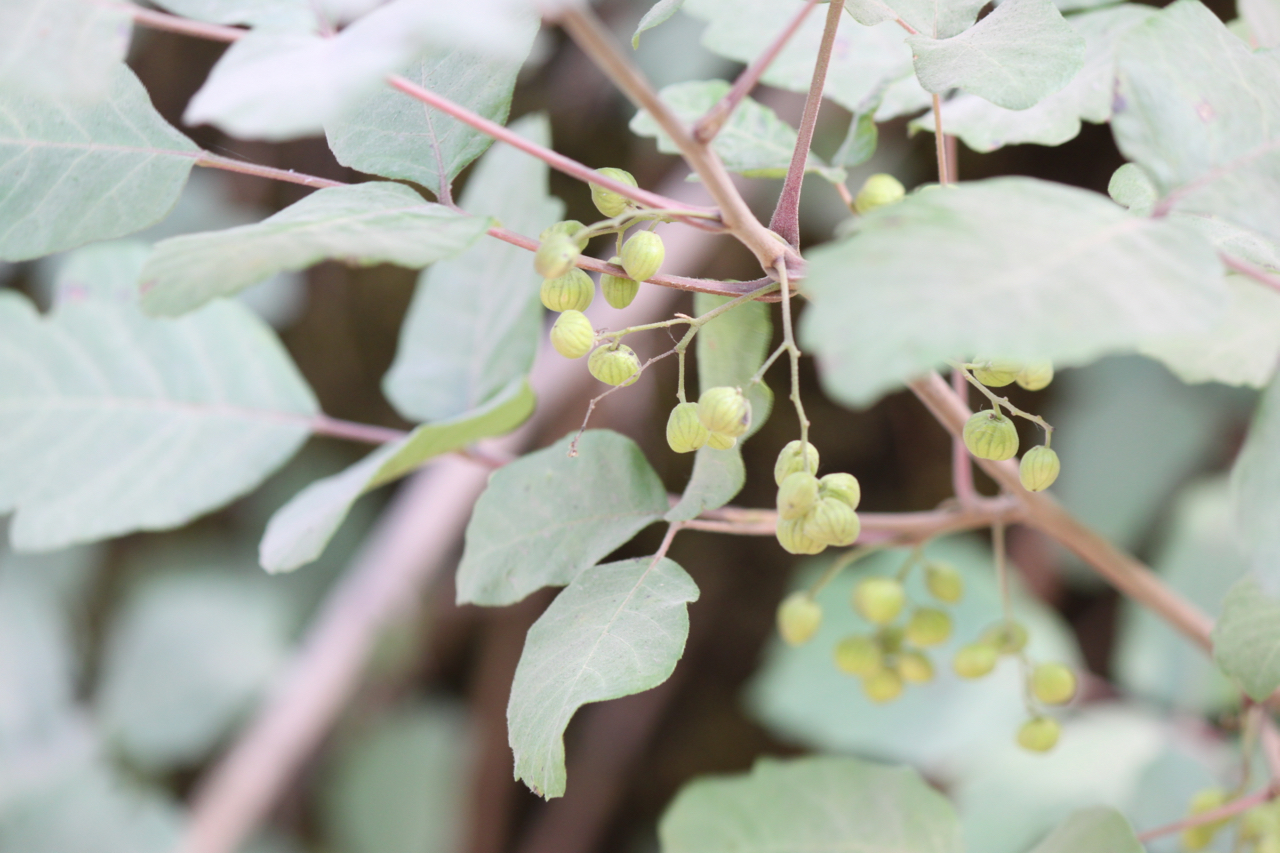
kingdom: Plantae
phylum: Tracheophyta
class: Magnoliopsida
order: Sapindales
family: Anacardiaceae
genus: Toxicodendron
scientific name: Toxicodendron diversilobum
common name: Pacific poison-oak
